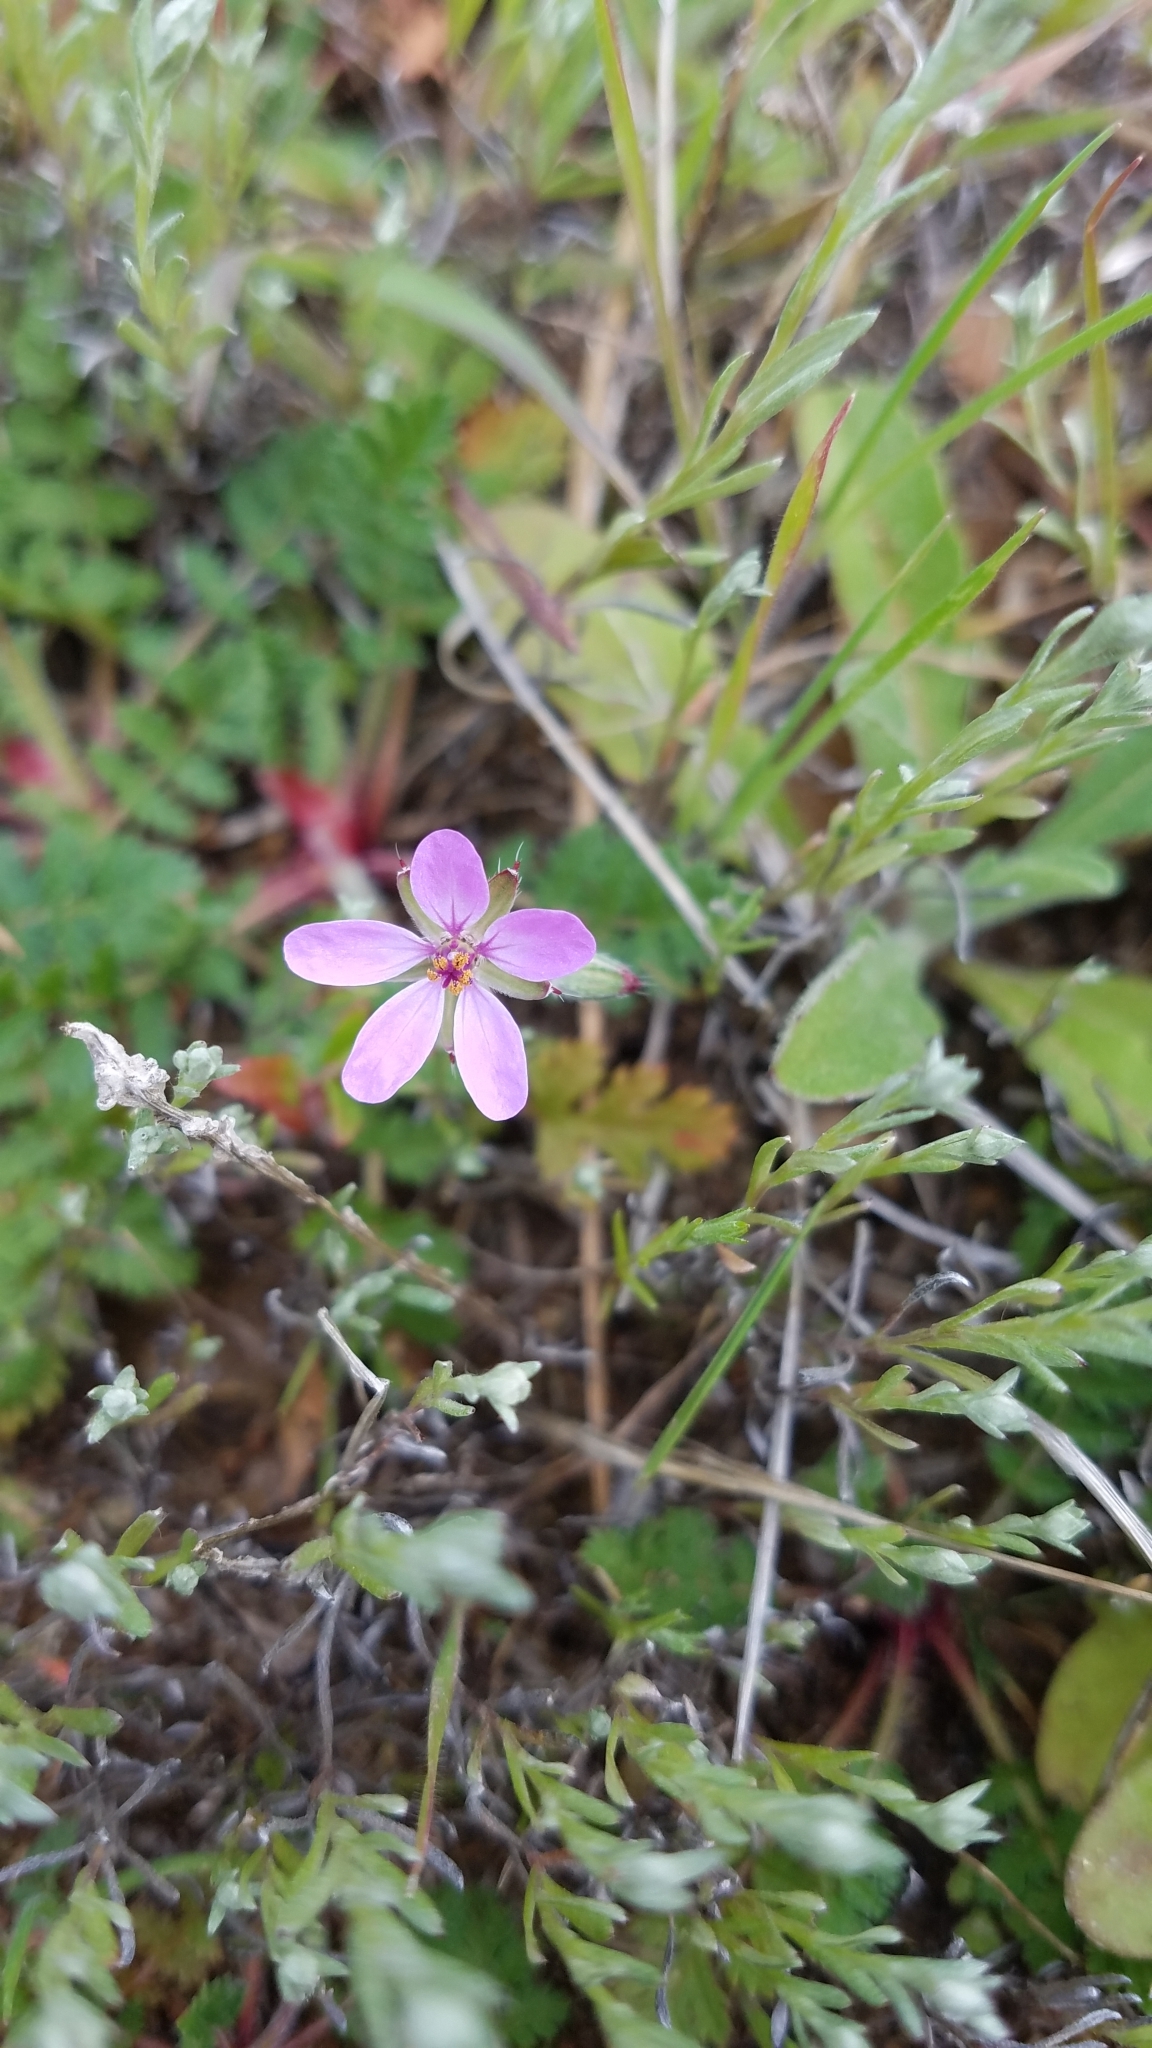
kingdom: Plantae
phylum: Tracheophyta
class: Magnoliopsida
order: Geraniales
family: Geraniaceae
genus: Erodium
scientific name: Erodium cicutarium
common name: Common stork's-bill
